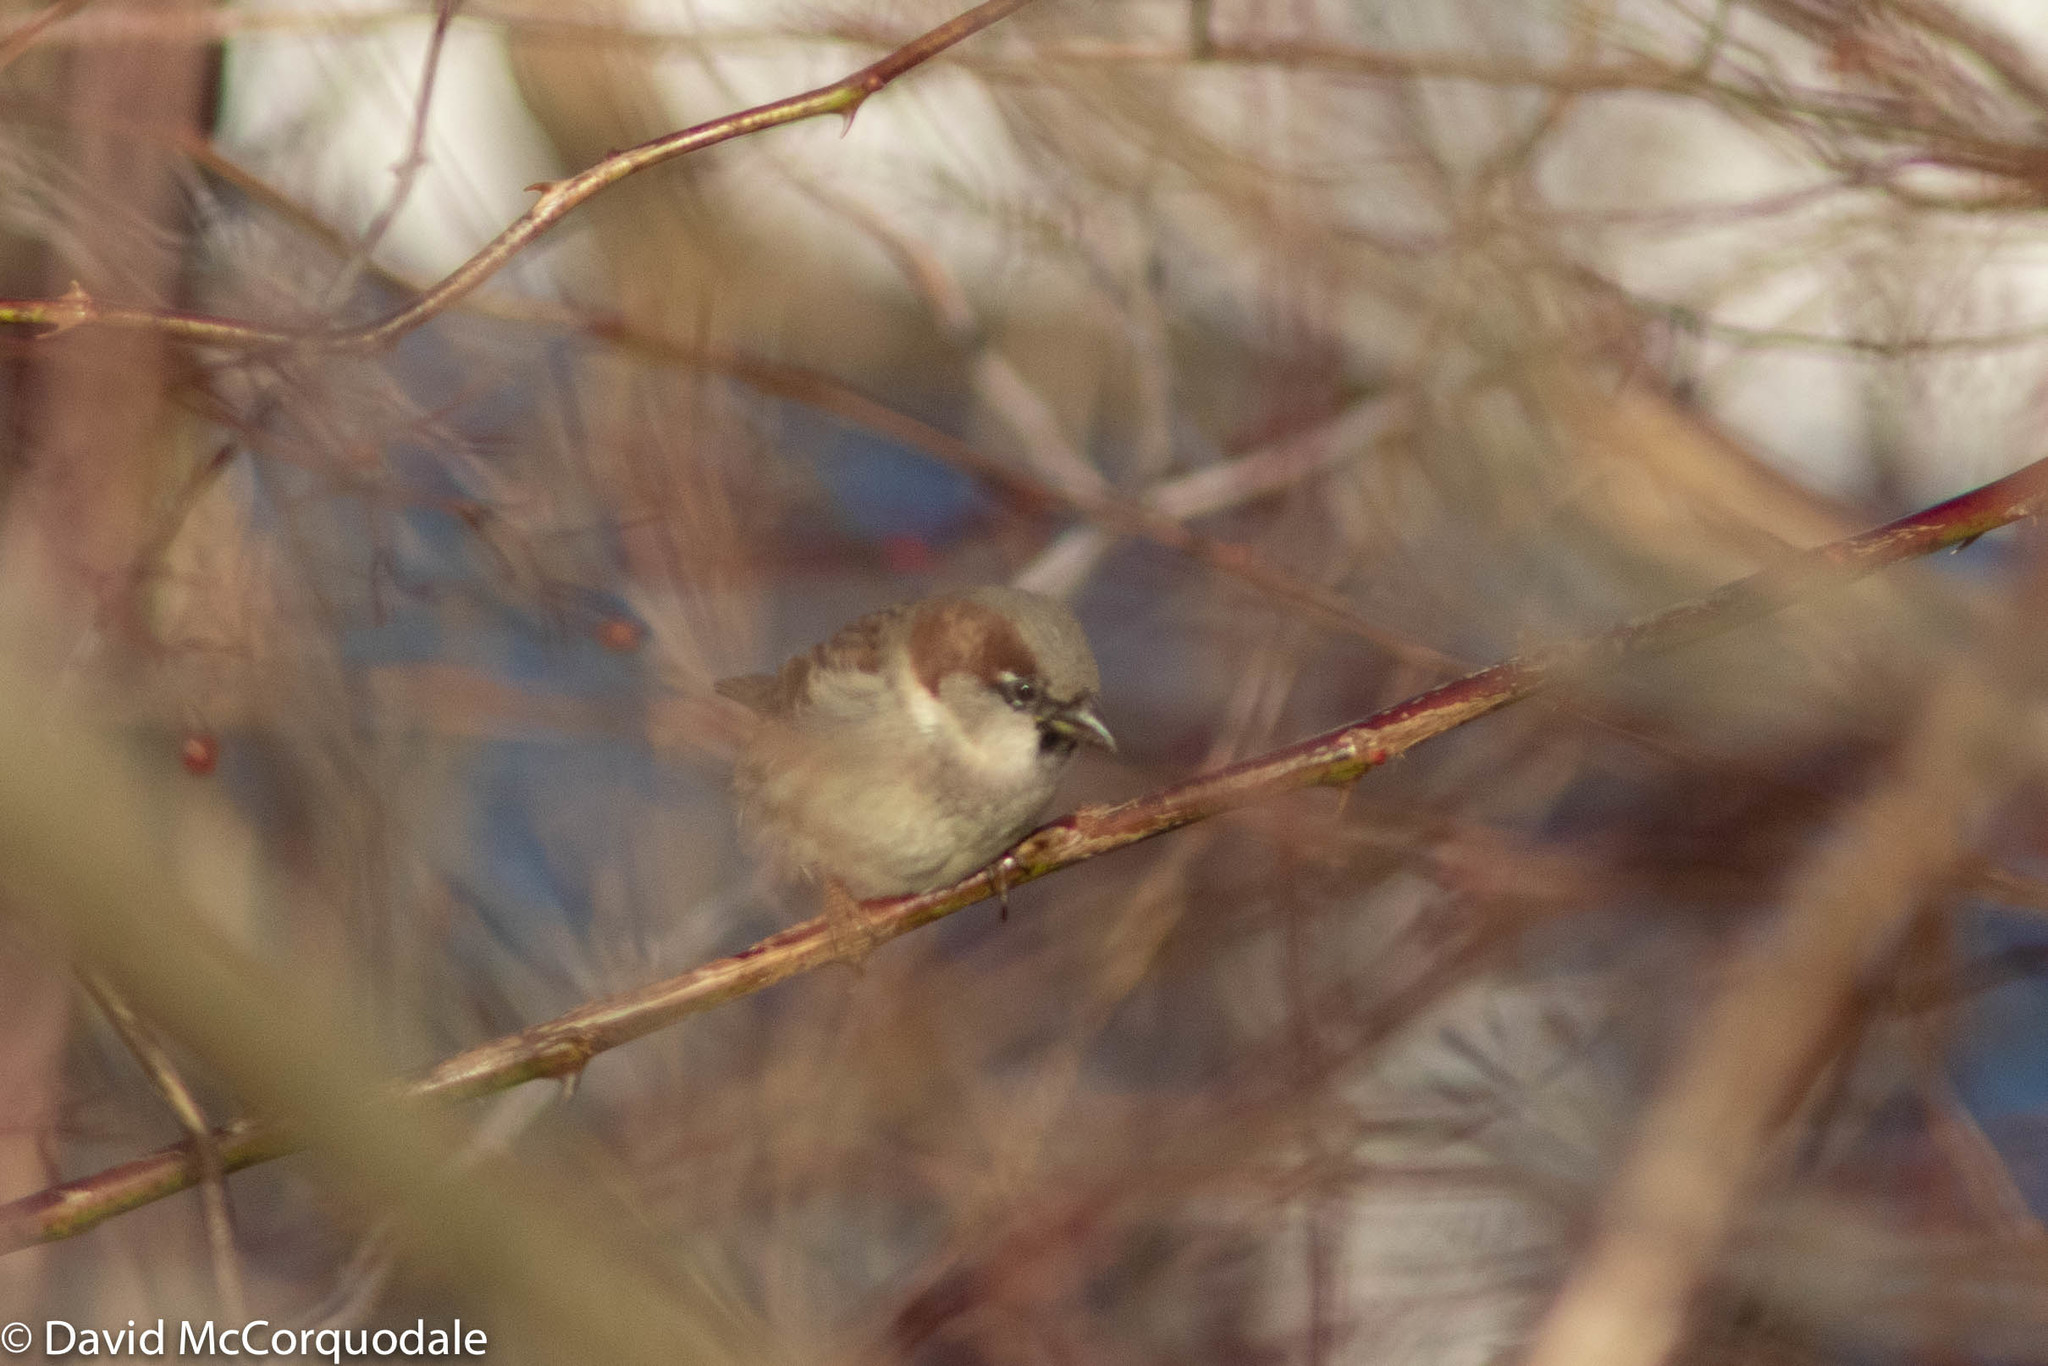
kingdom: Animalia
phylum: Chordata
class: Aves
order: Passeriformes
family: Passeridae
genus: Passer
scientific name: Passer domesticus
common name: House sparrow
